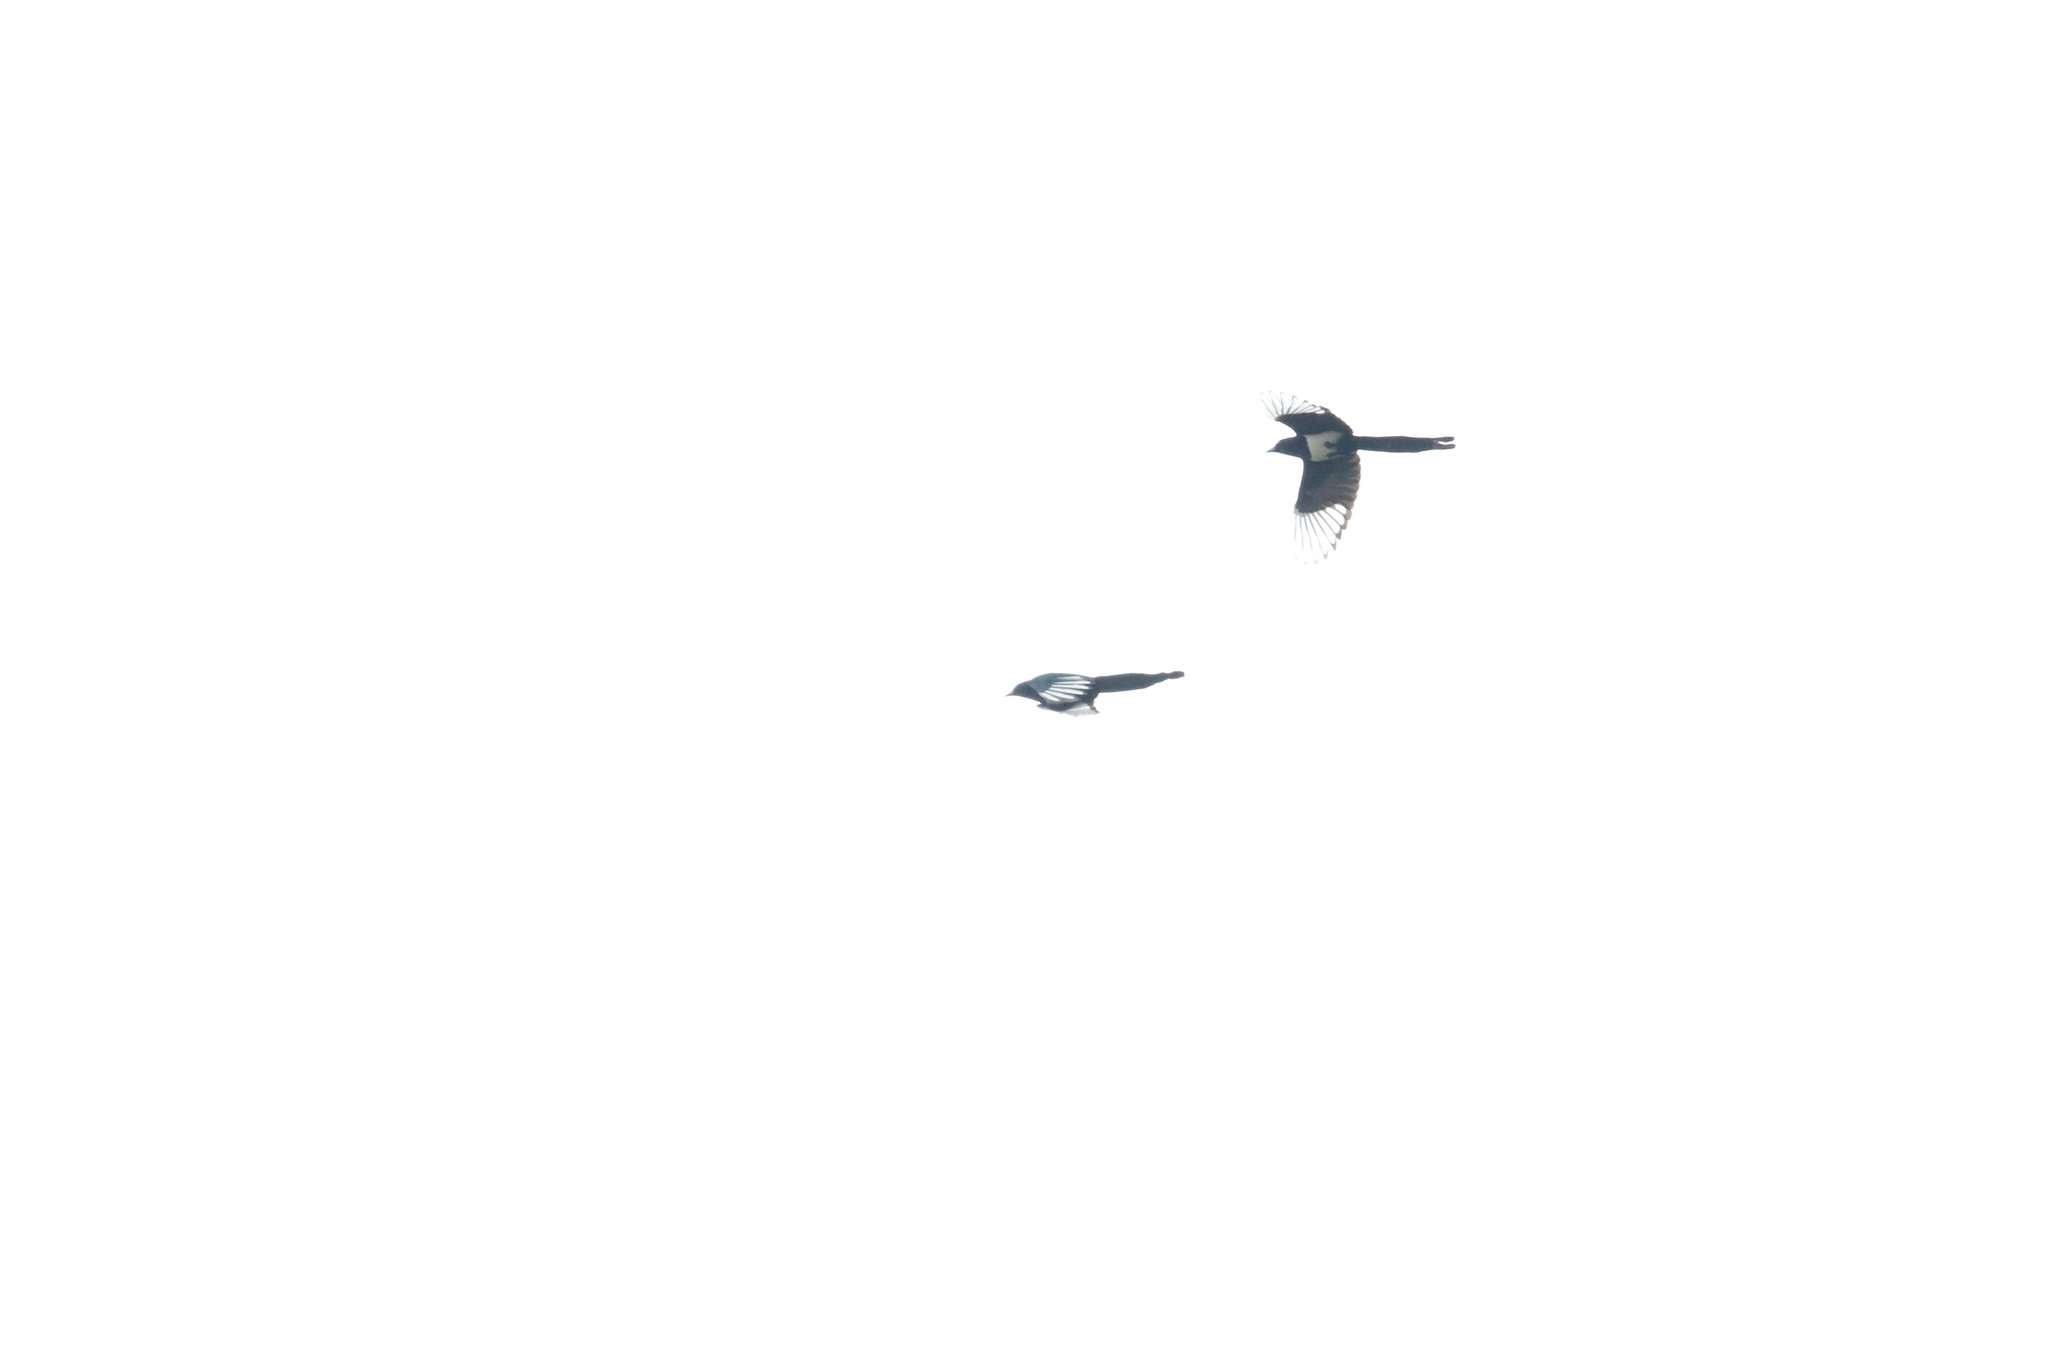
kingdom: Animalia
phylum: Chordata
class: Aves
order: Passeriformes
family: Corvidae
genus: Pica
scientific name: Pica hudsonia
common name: Black-billed magpie
